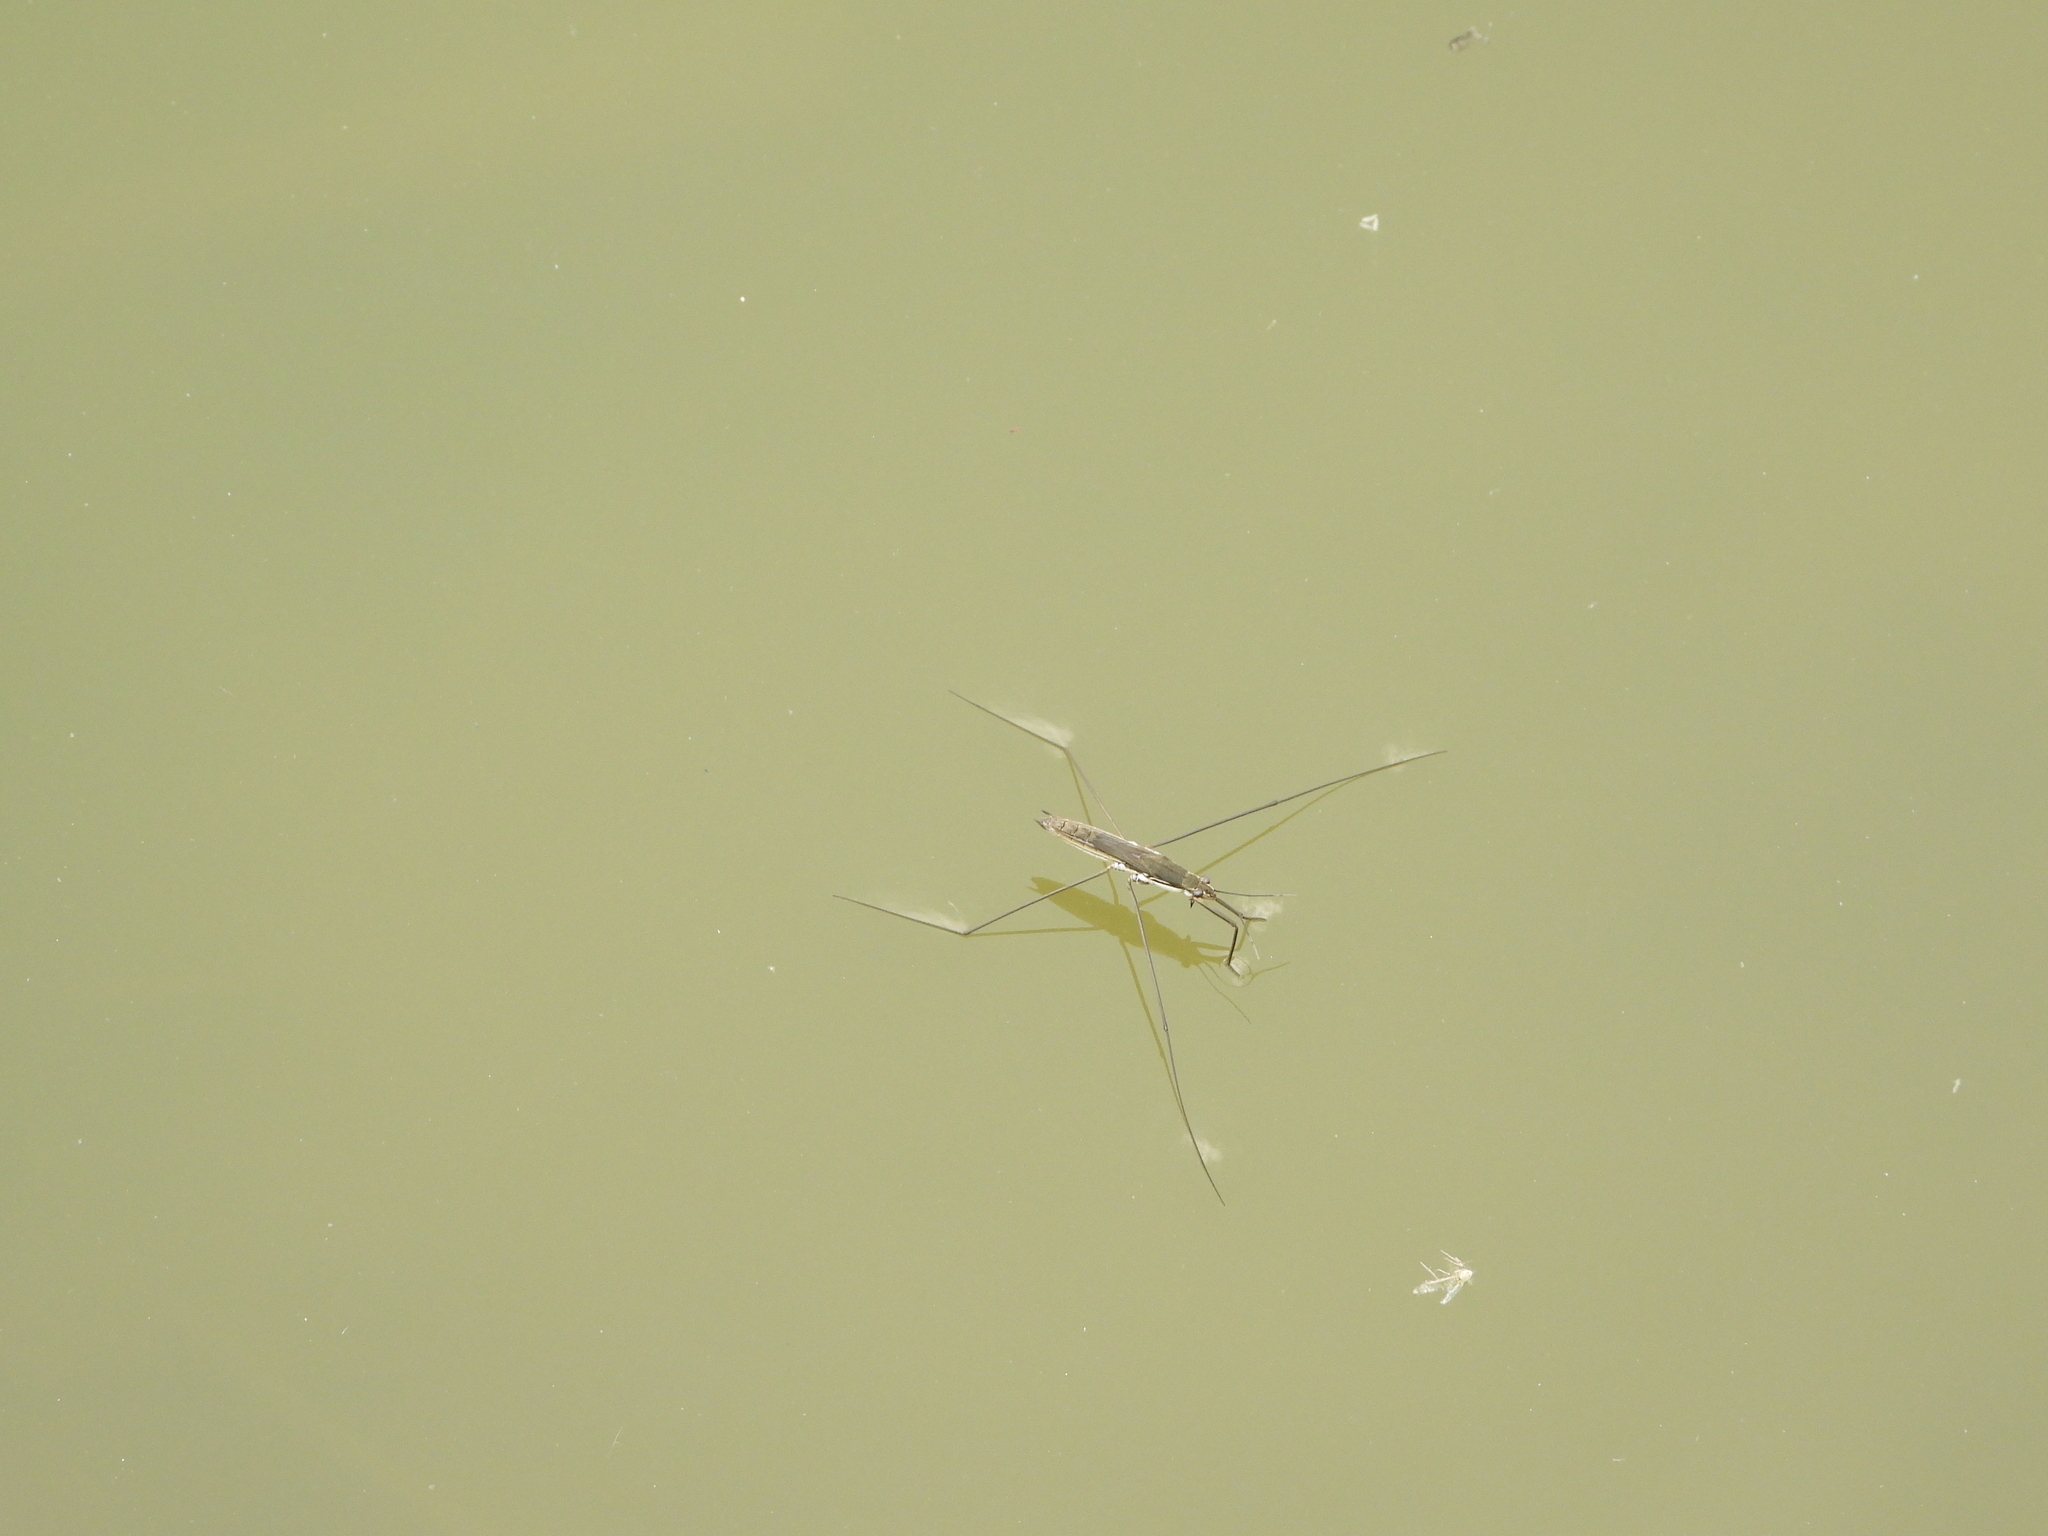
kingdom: Animalia
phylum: Arthropoda
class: Insecta
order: Hemiptera
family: Gerridae
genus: Aquarius
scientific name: Aquarius paludum
